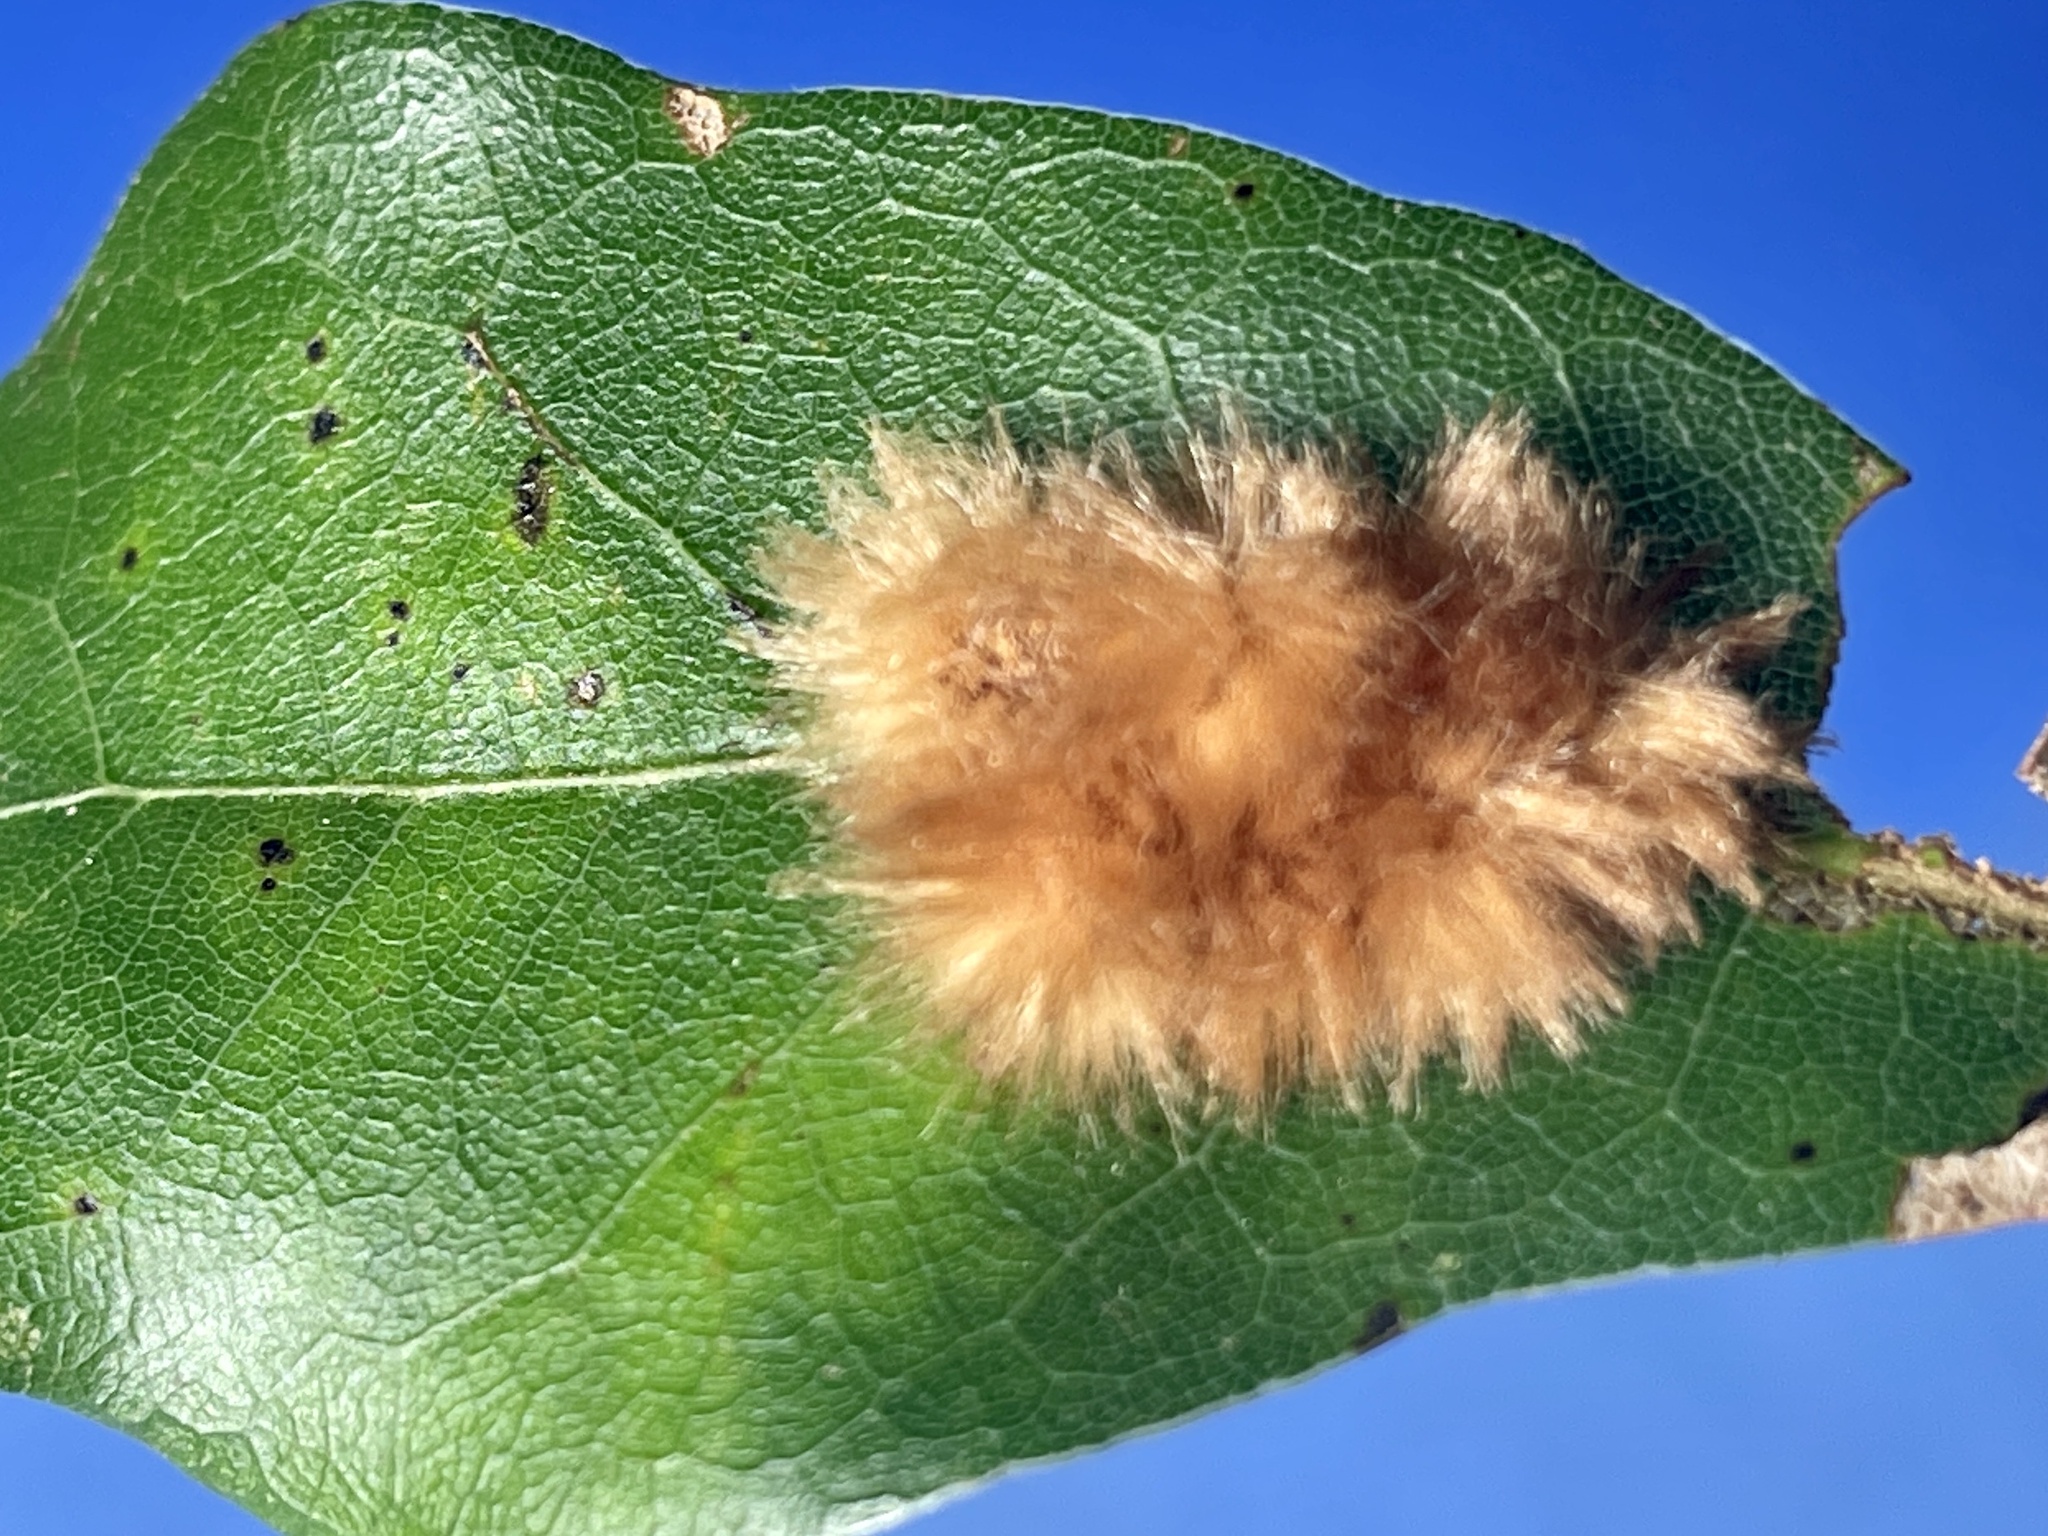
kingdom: Animalia
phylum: Arthropoda
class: Insecta
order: Hymenoptera
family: Cynipidae
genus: Callirhytis
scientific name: Callirhytis
